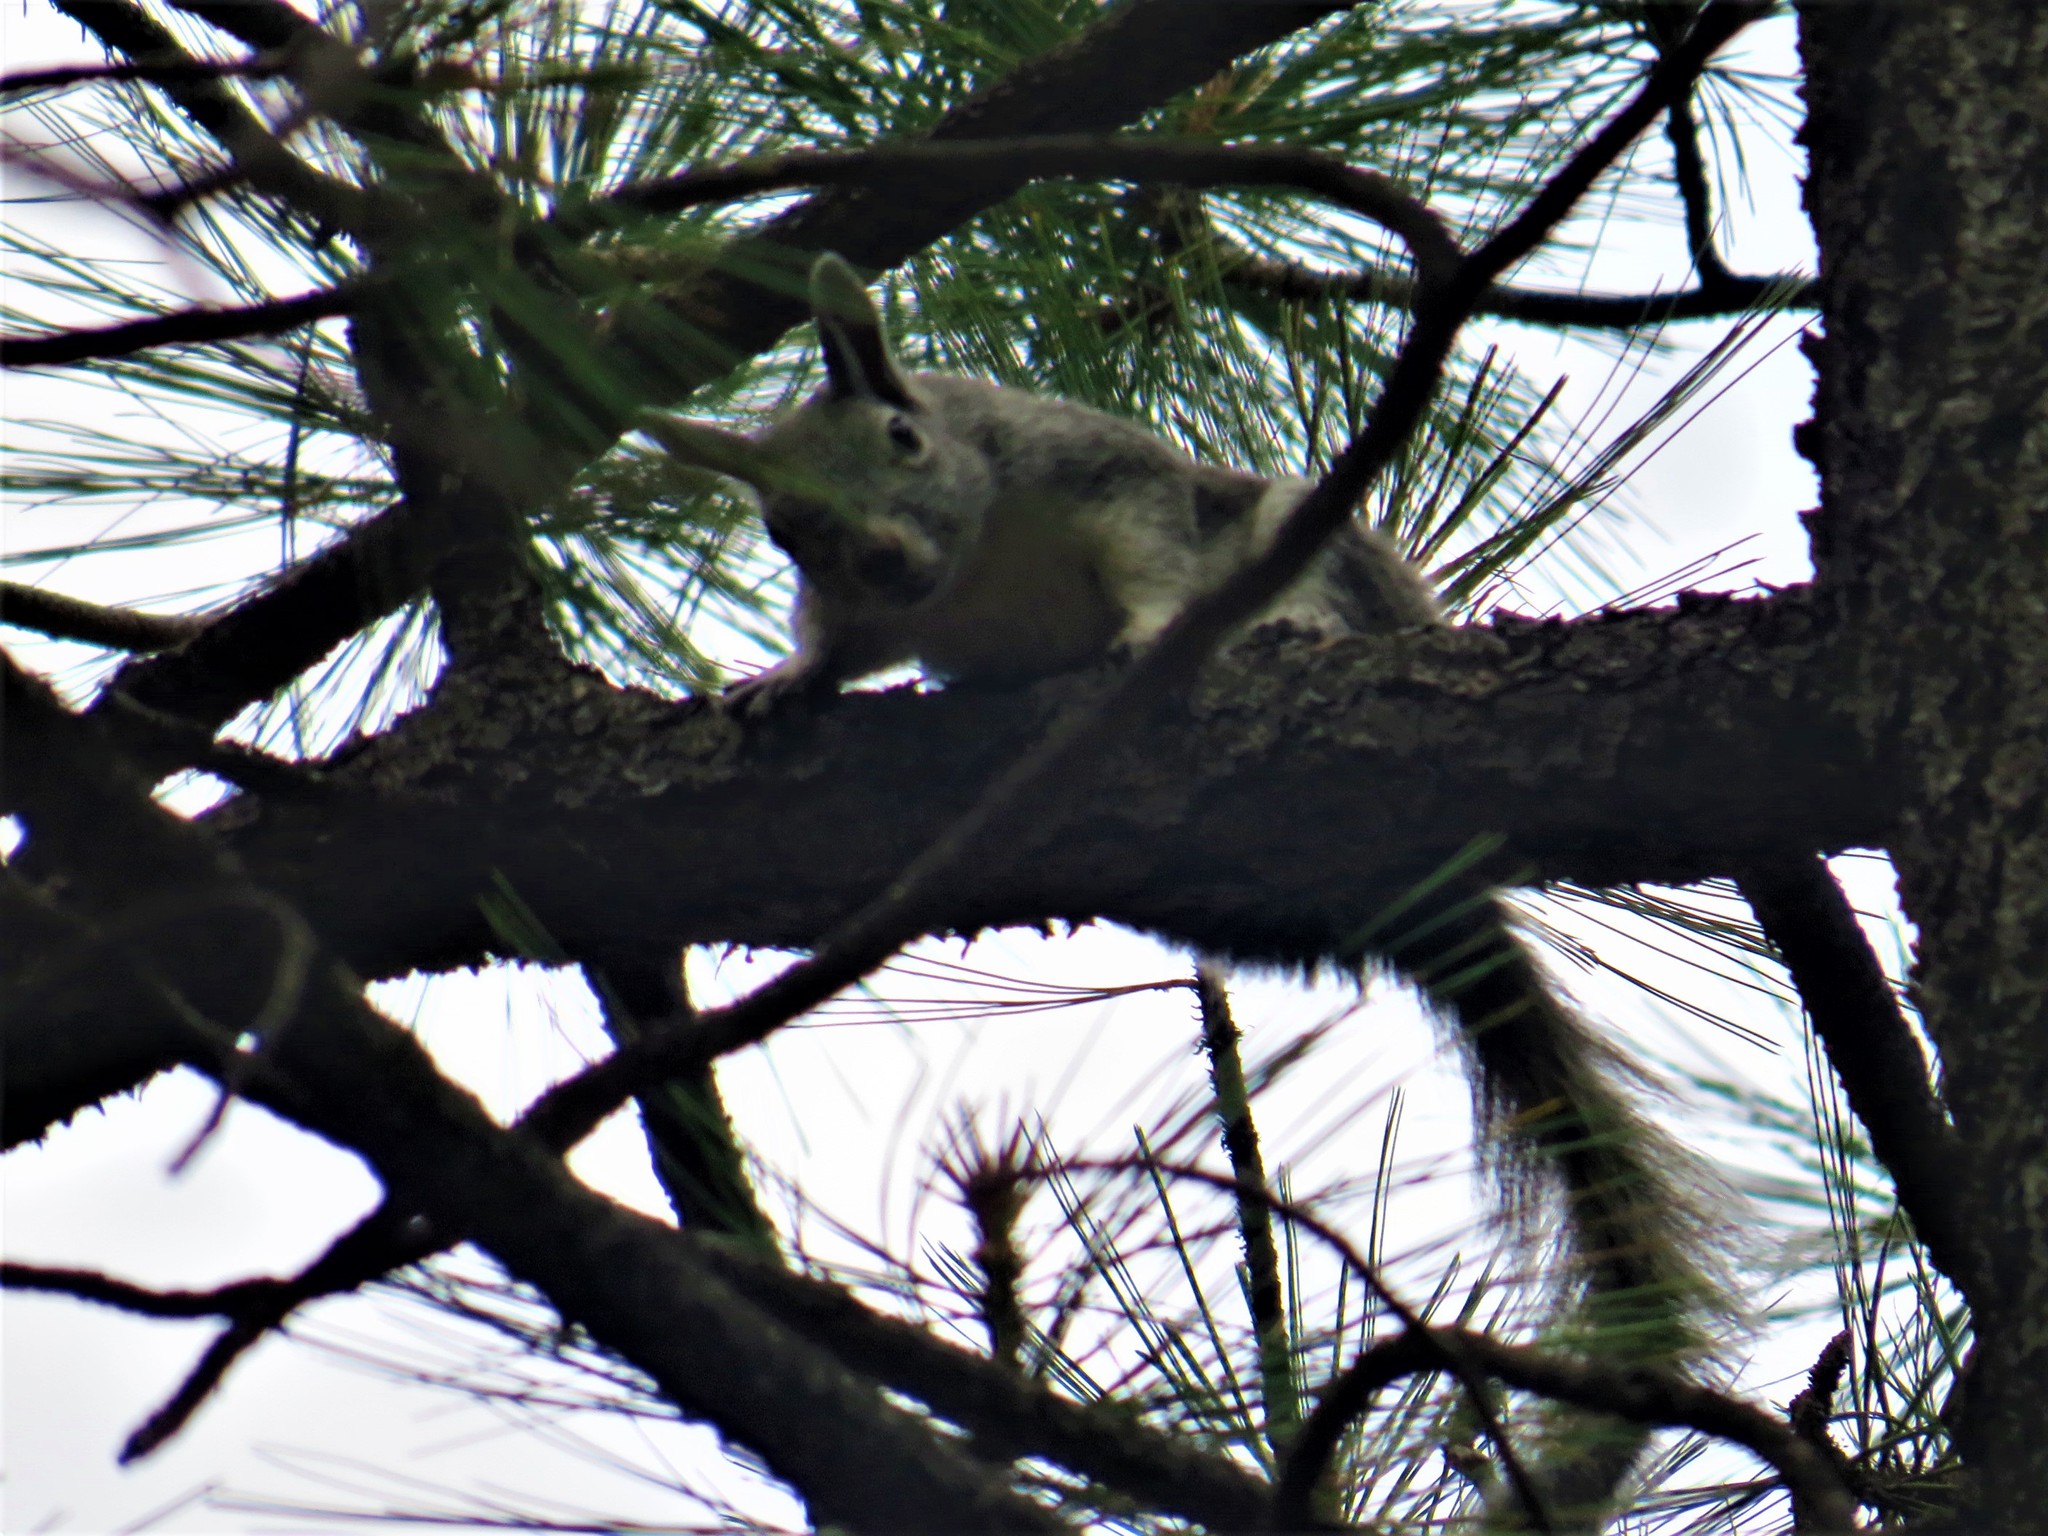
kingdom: Animalia
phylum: Chordata
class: Mammalia
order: Rodentia
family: Sciuridae
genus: Sciurus
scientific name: Sciurus aberti
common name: Abert's squirrel
